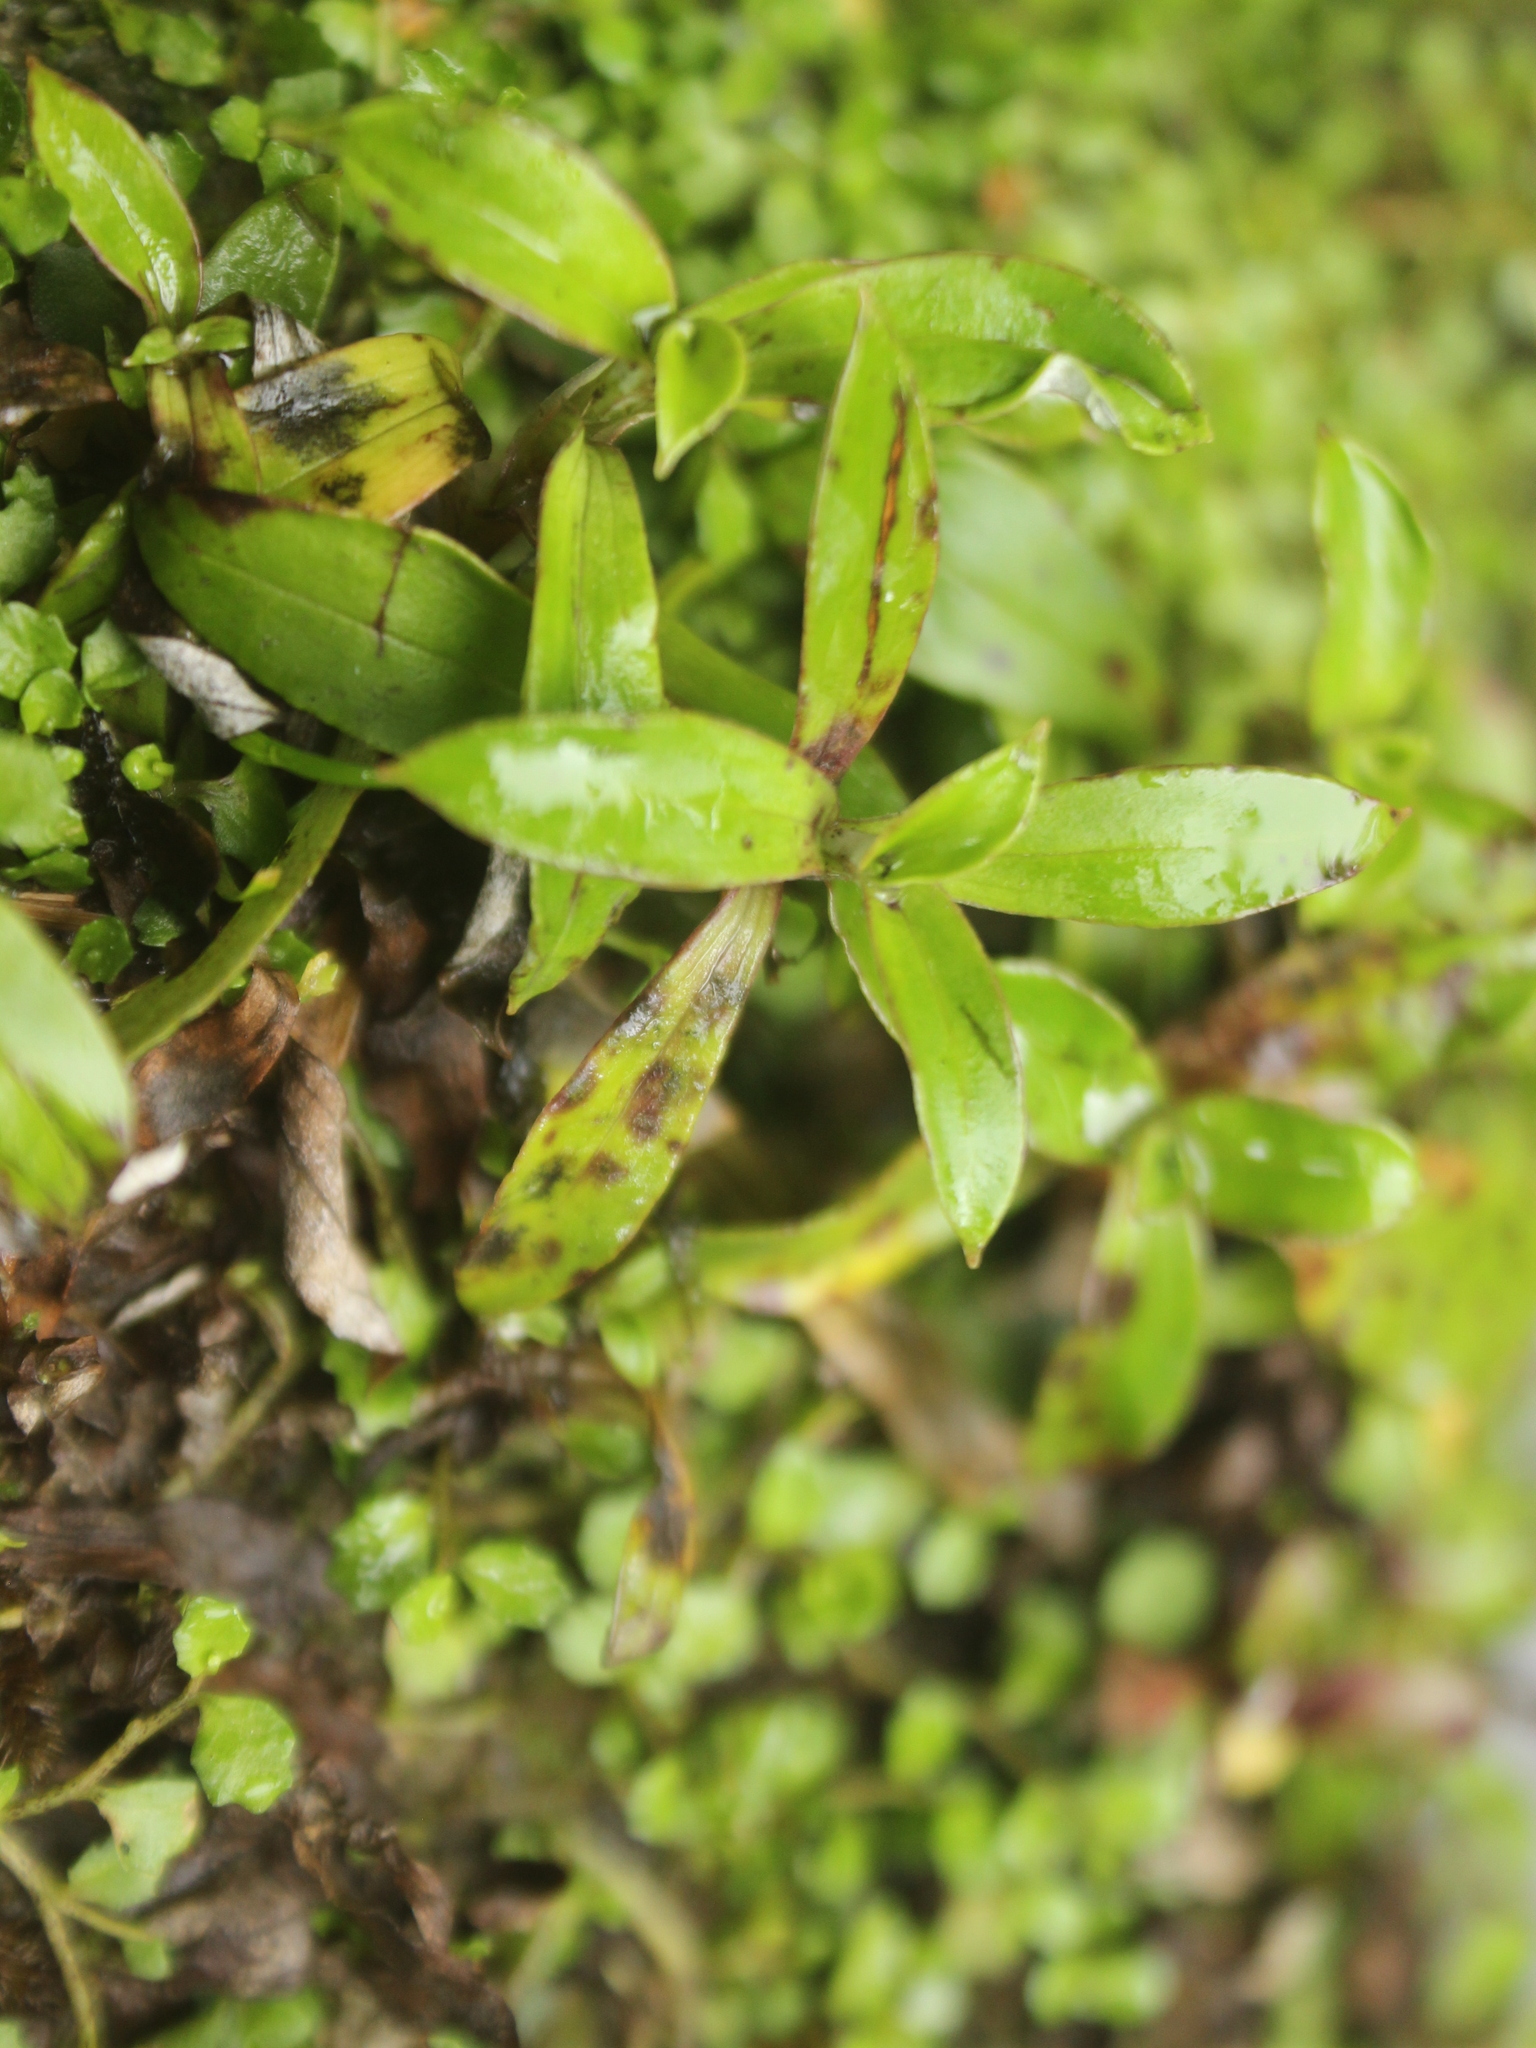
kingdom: Plantae
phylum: Tracheophyta
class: Magnoliopsida
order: Asterales
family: Asteraceae
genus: Anaphalioides
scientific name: Anaphalioides trinervis
